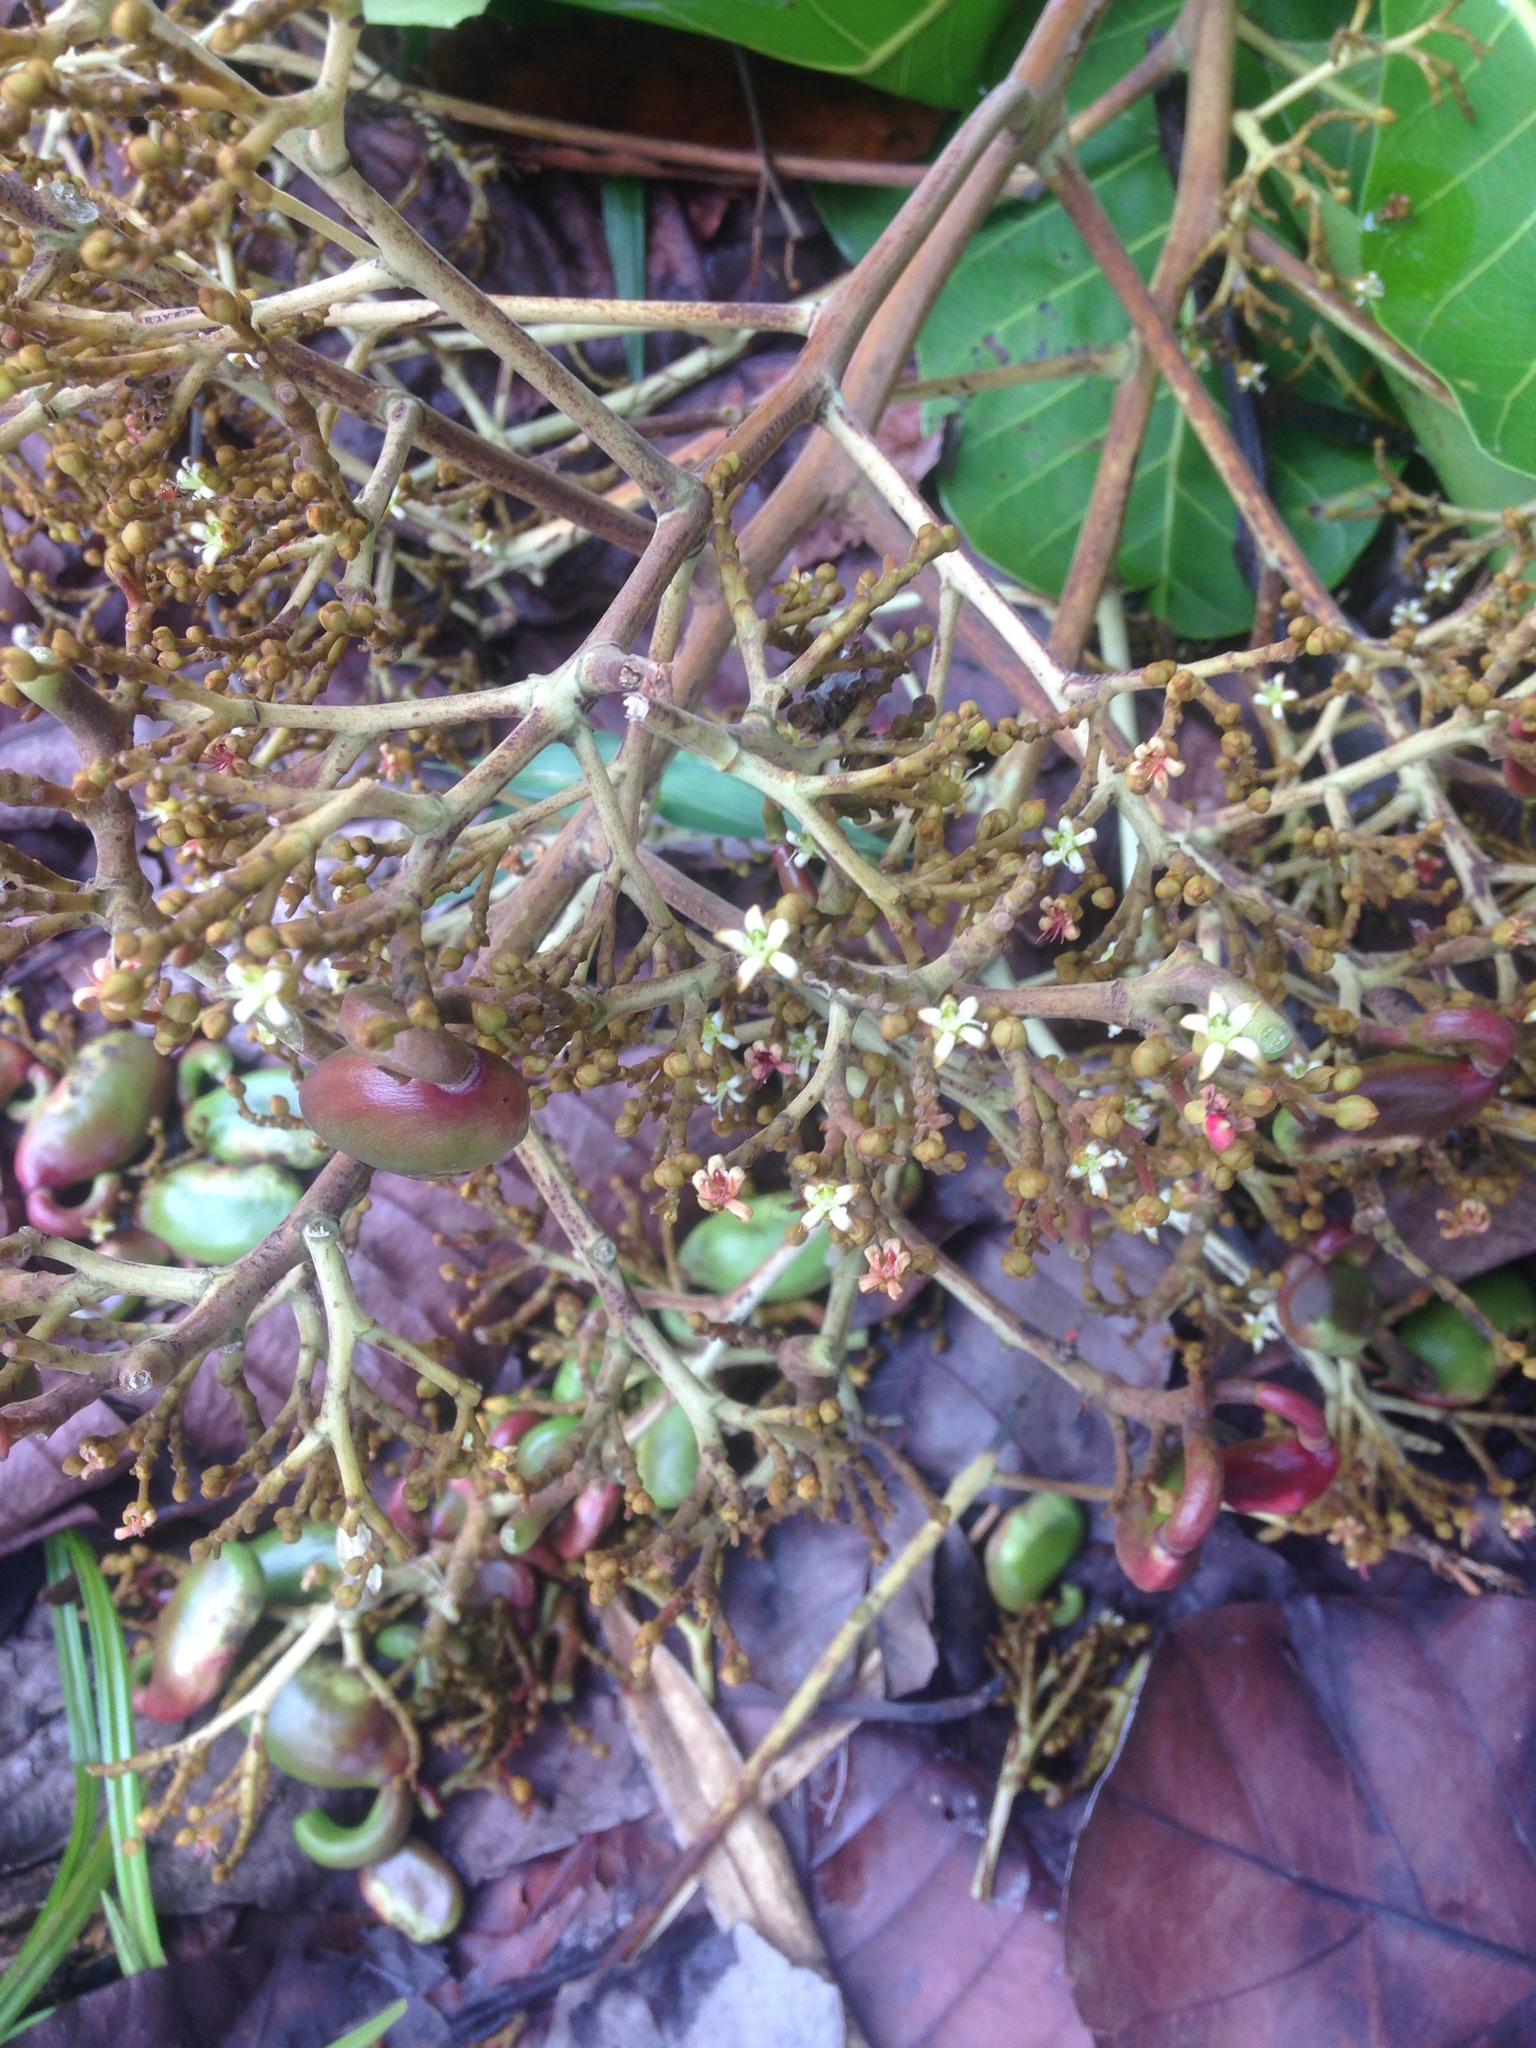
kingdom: Plantae
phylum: Tracheophyta
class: Magnoliopsida
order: Sapindales
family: Anacardiaceae
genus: Anacardium
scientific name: Anacardium excelsum
